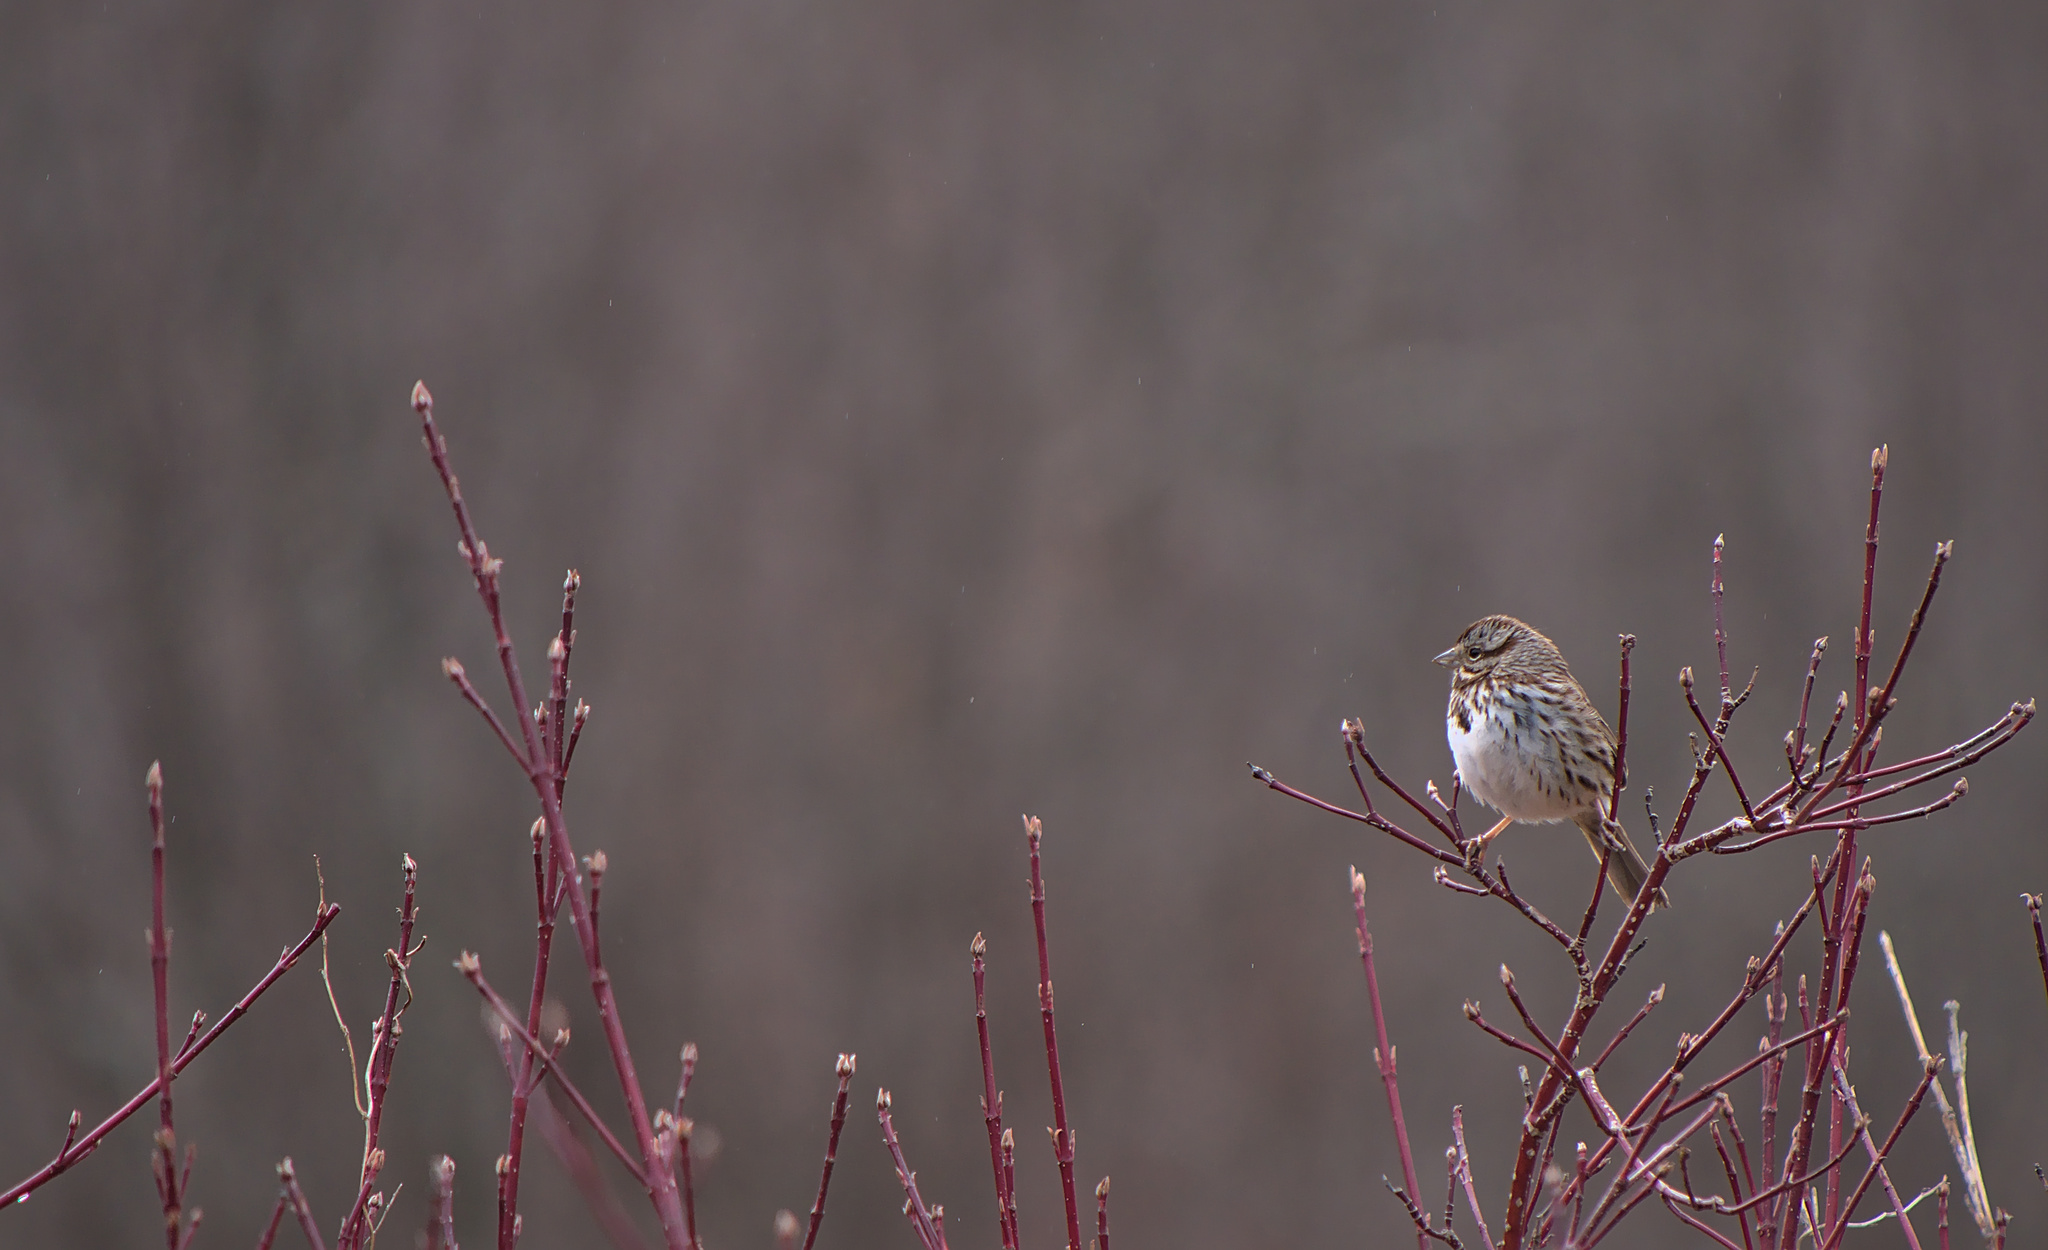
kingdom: Animalia
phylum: Chordata
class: Aves
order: Passeriformes
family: Passerellidae
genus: Melospiza
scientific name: Melospiza melodia
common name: Song sparrow
